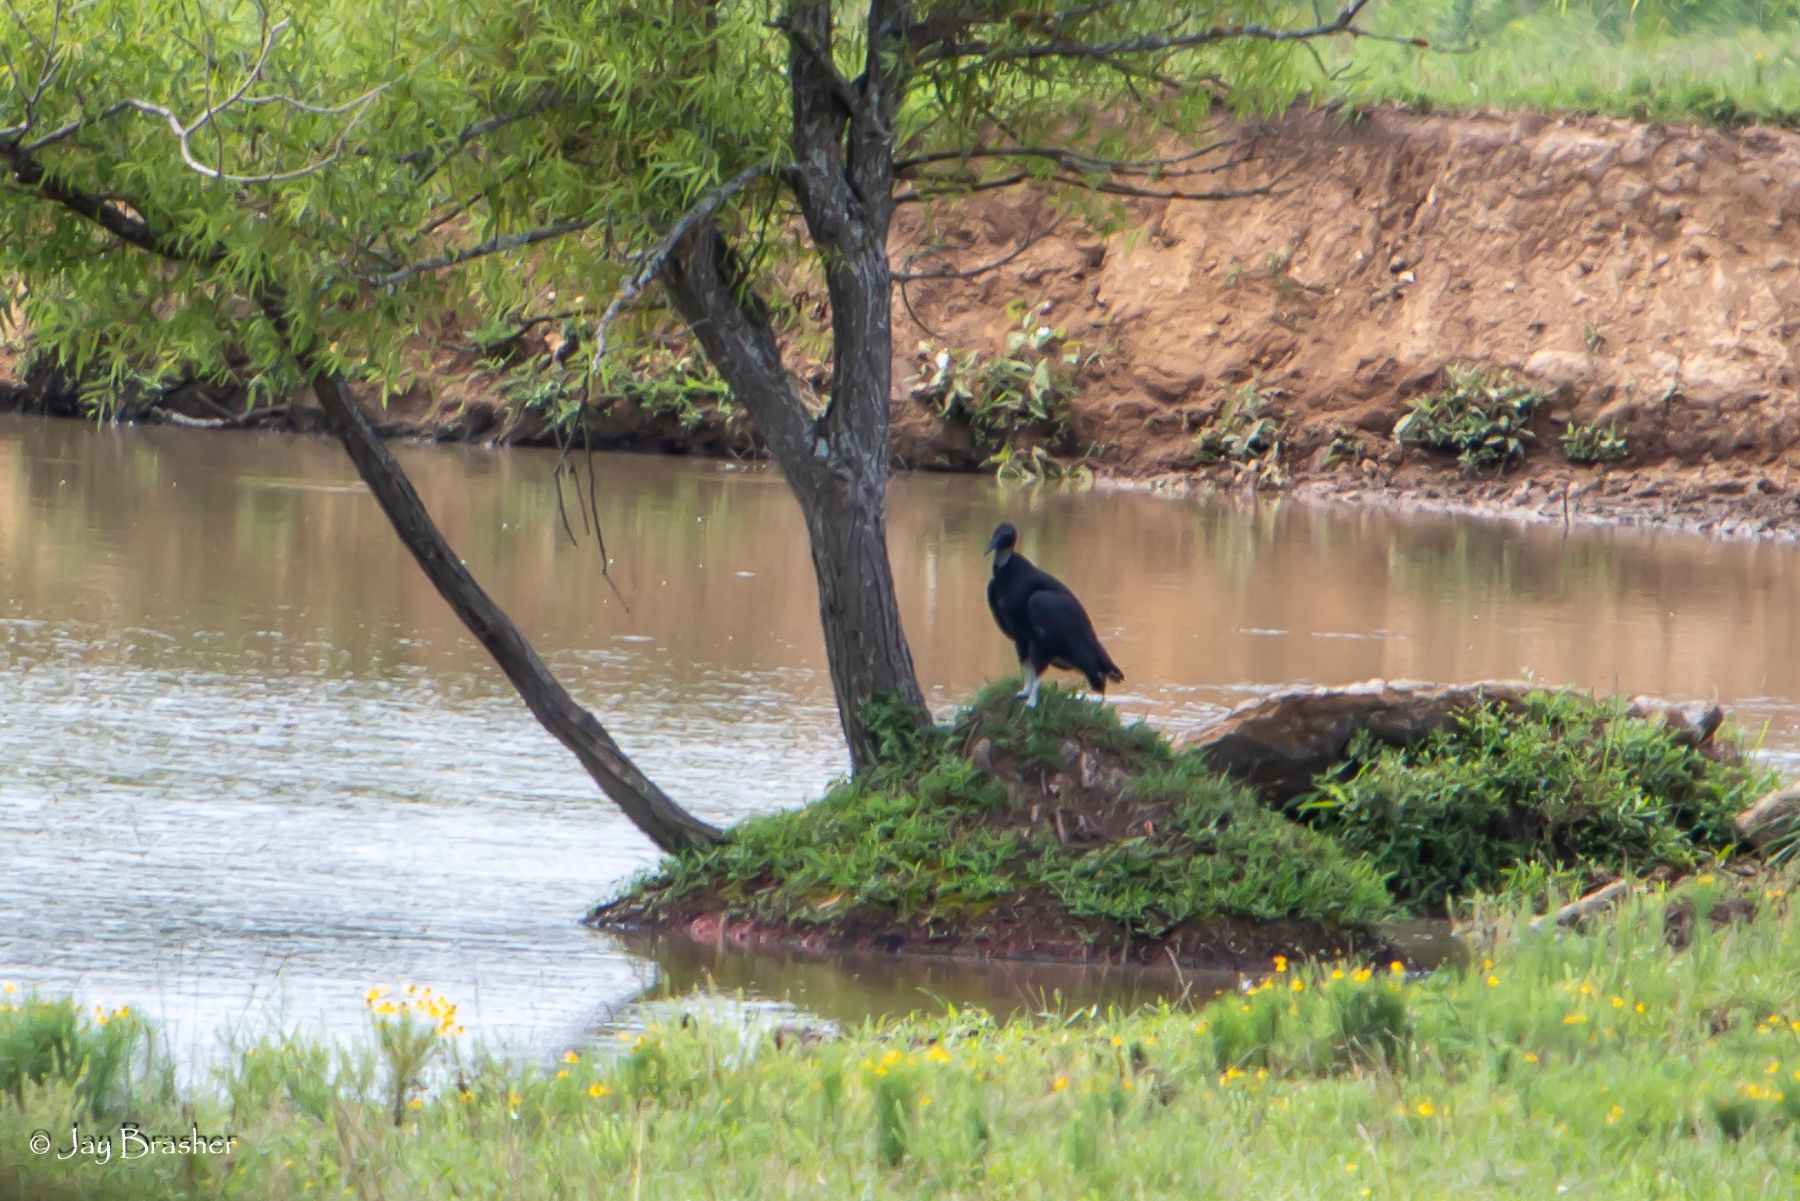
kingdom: Animalia
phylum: Chordata
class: Aves
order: Accipitriformes
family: Cathartidae
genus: Coragyps
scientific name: Coragyps atratus
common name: Black vulture
